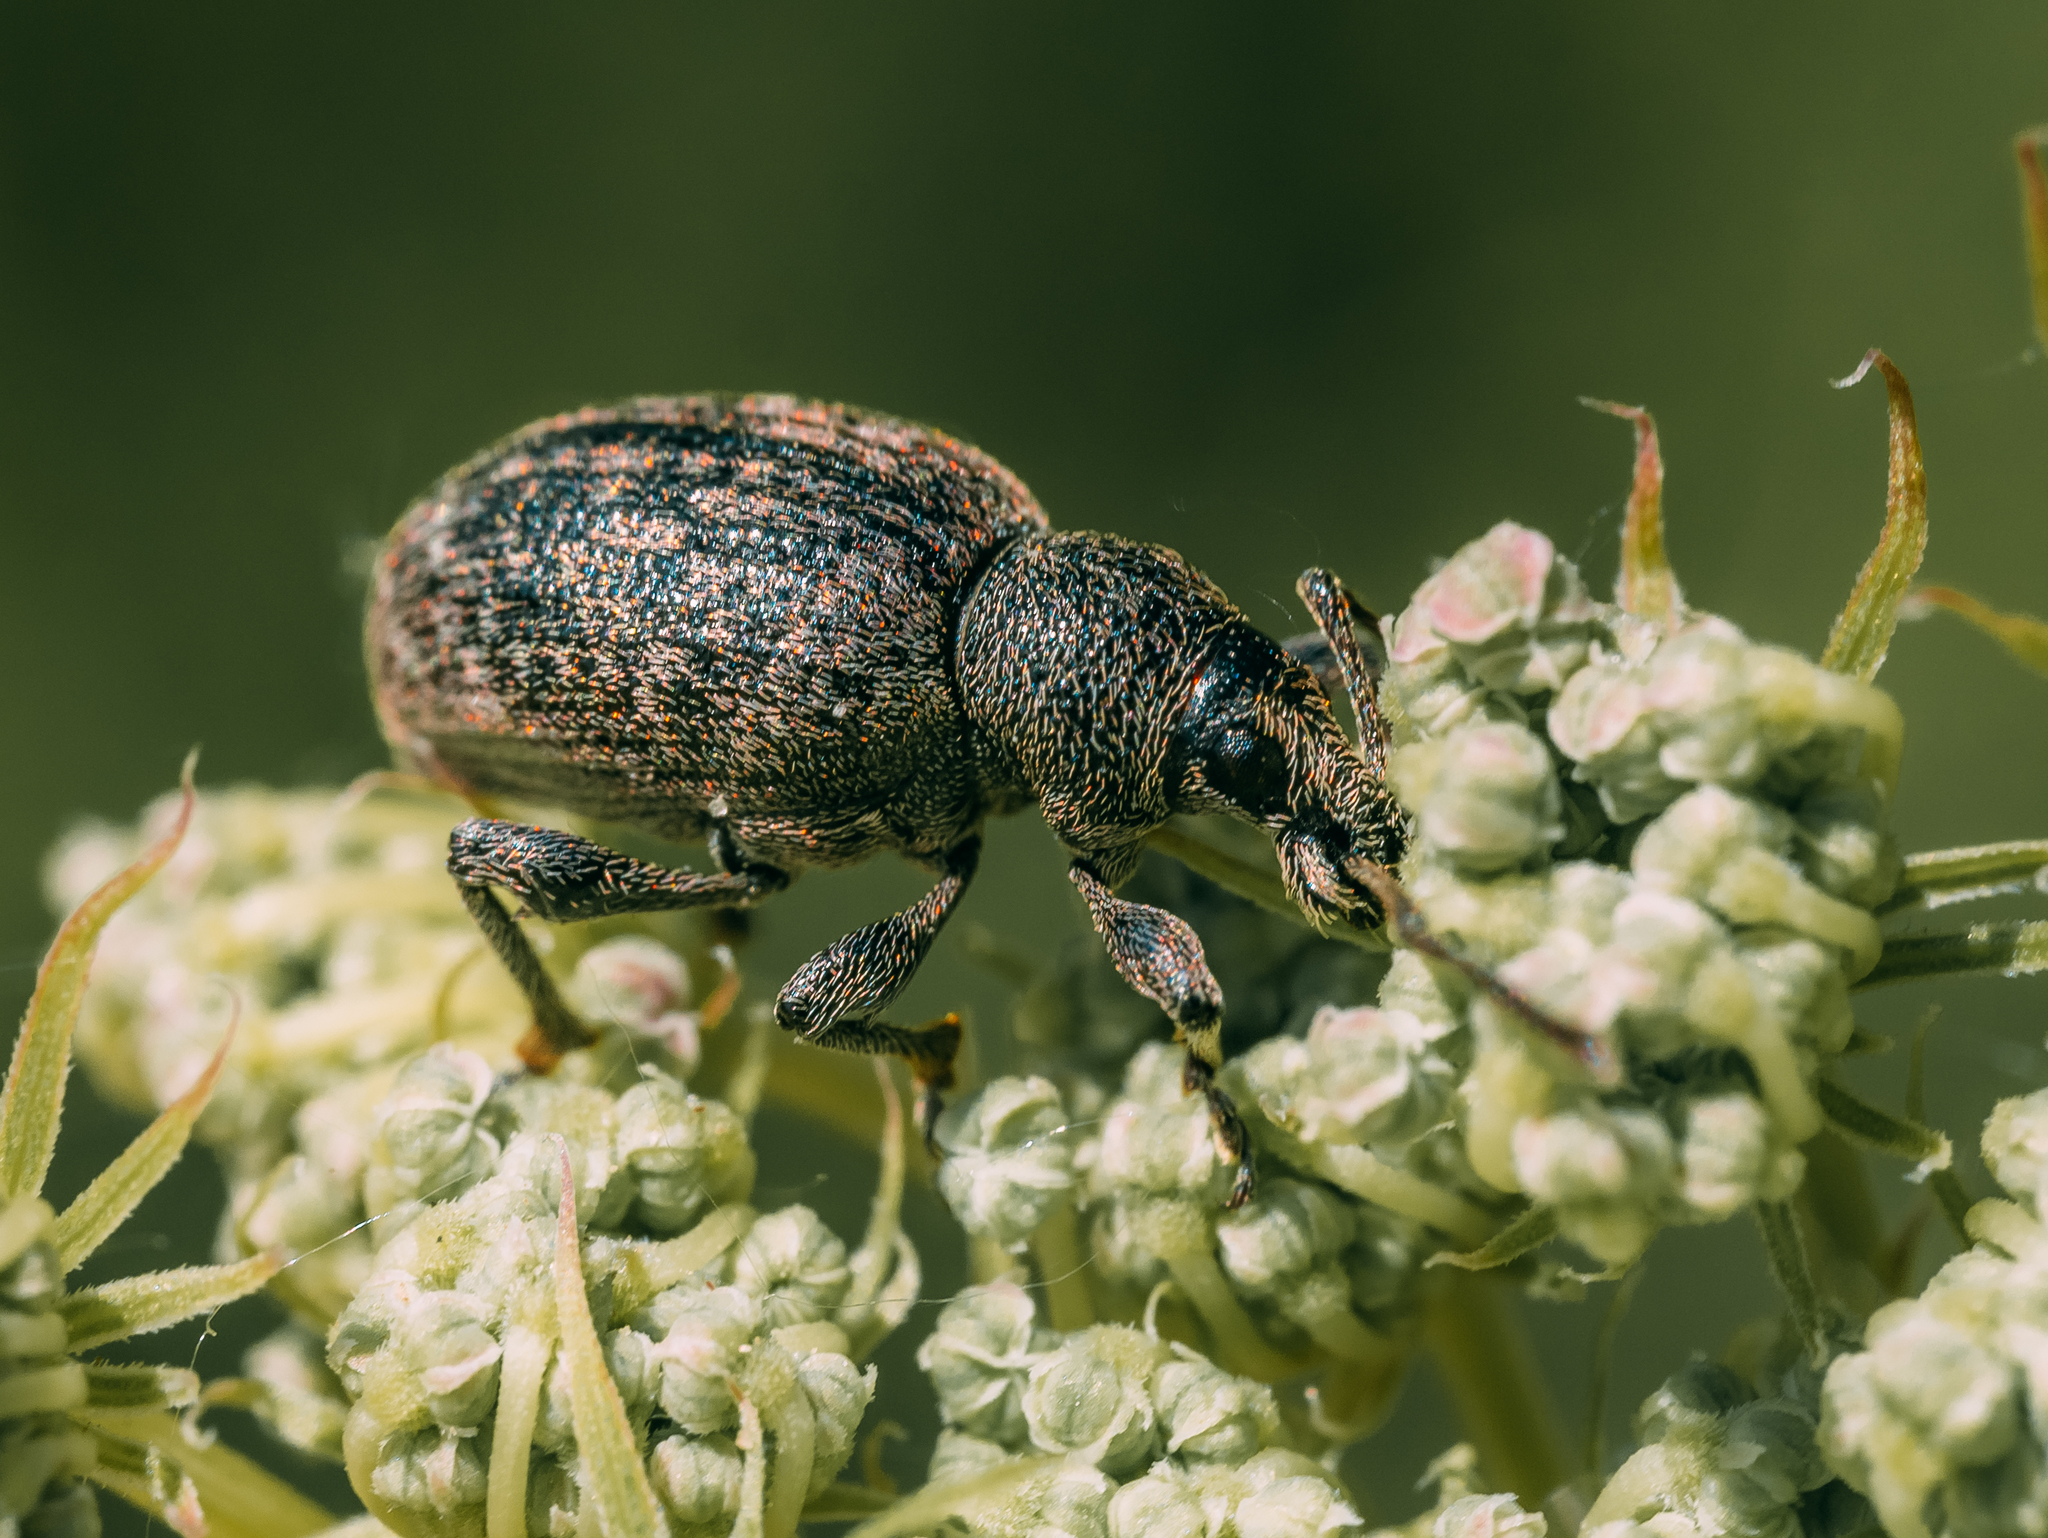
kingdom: Animalia
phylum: Arthropoda
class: Insecta
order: Coleoptera
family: Curculionidae
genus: Otiorhynchus
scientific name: Otiorhynchus tristis
